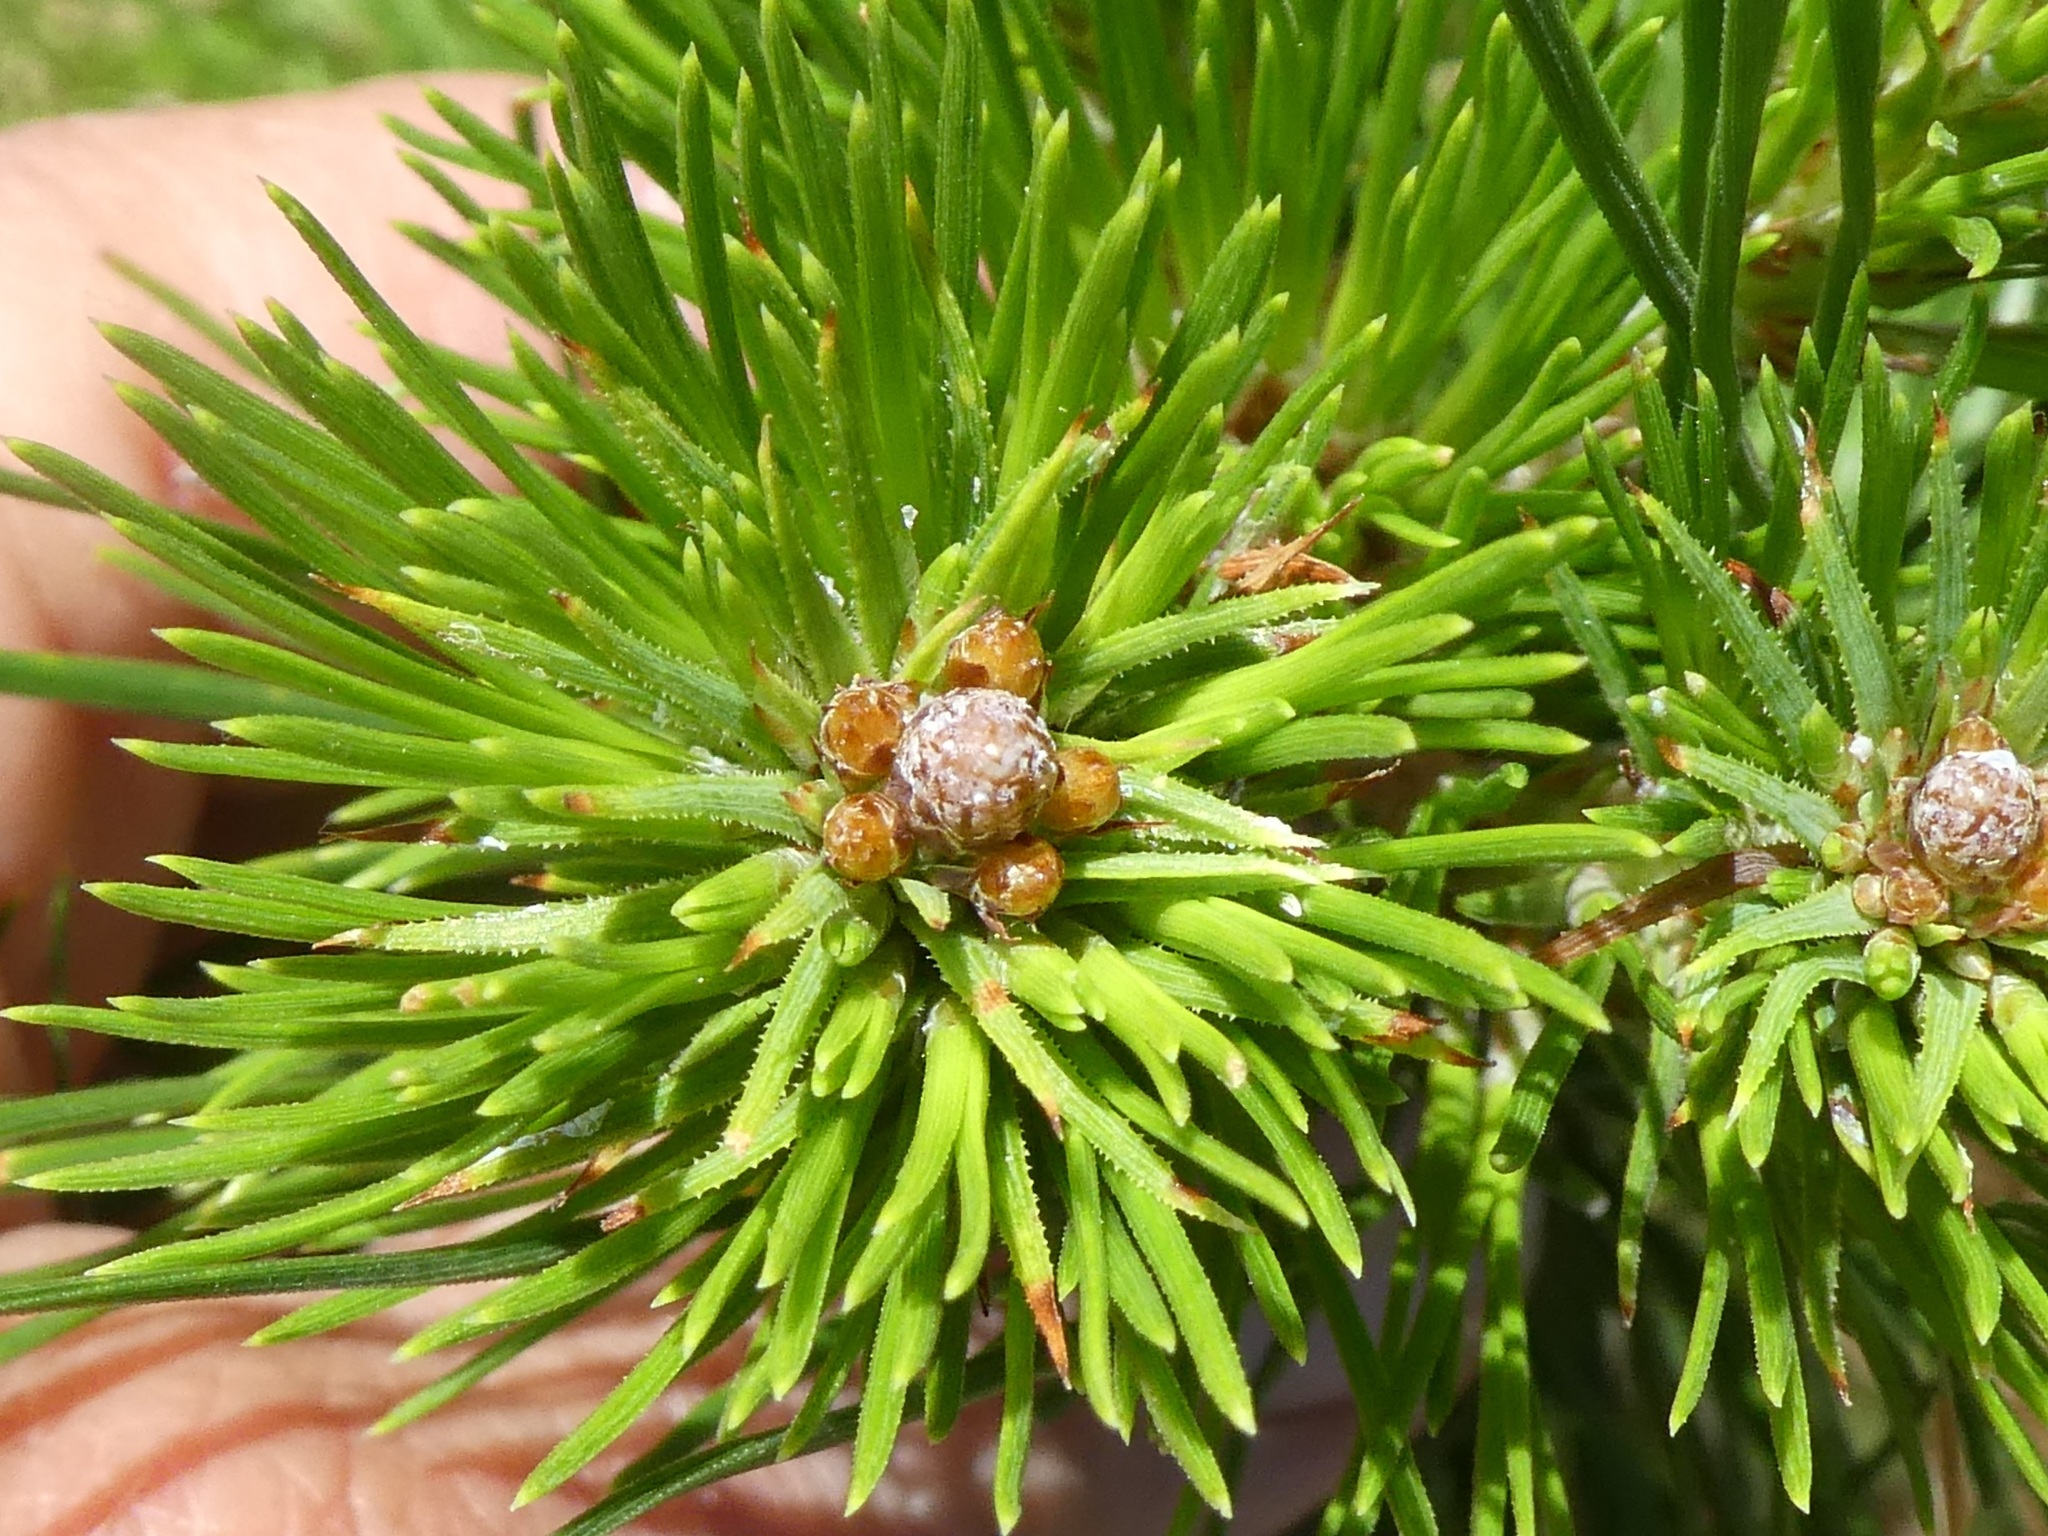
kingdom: Plantae
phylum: Tracheophyta
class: Pinopsida
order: Pinales
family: Pinaceae
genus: Pinus
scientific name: Pinus radiata
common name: Monterey pine
